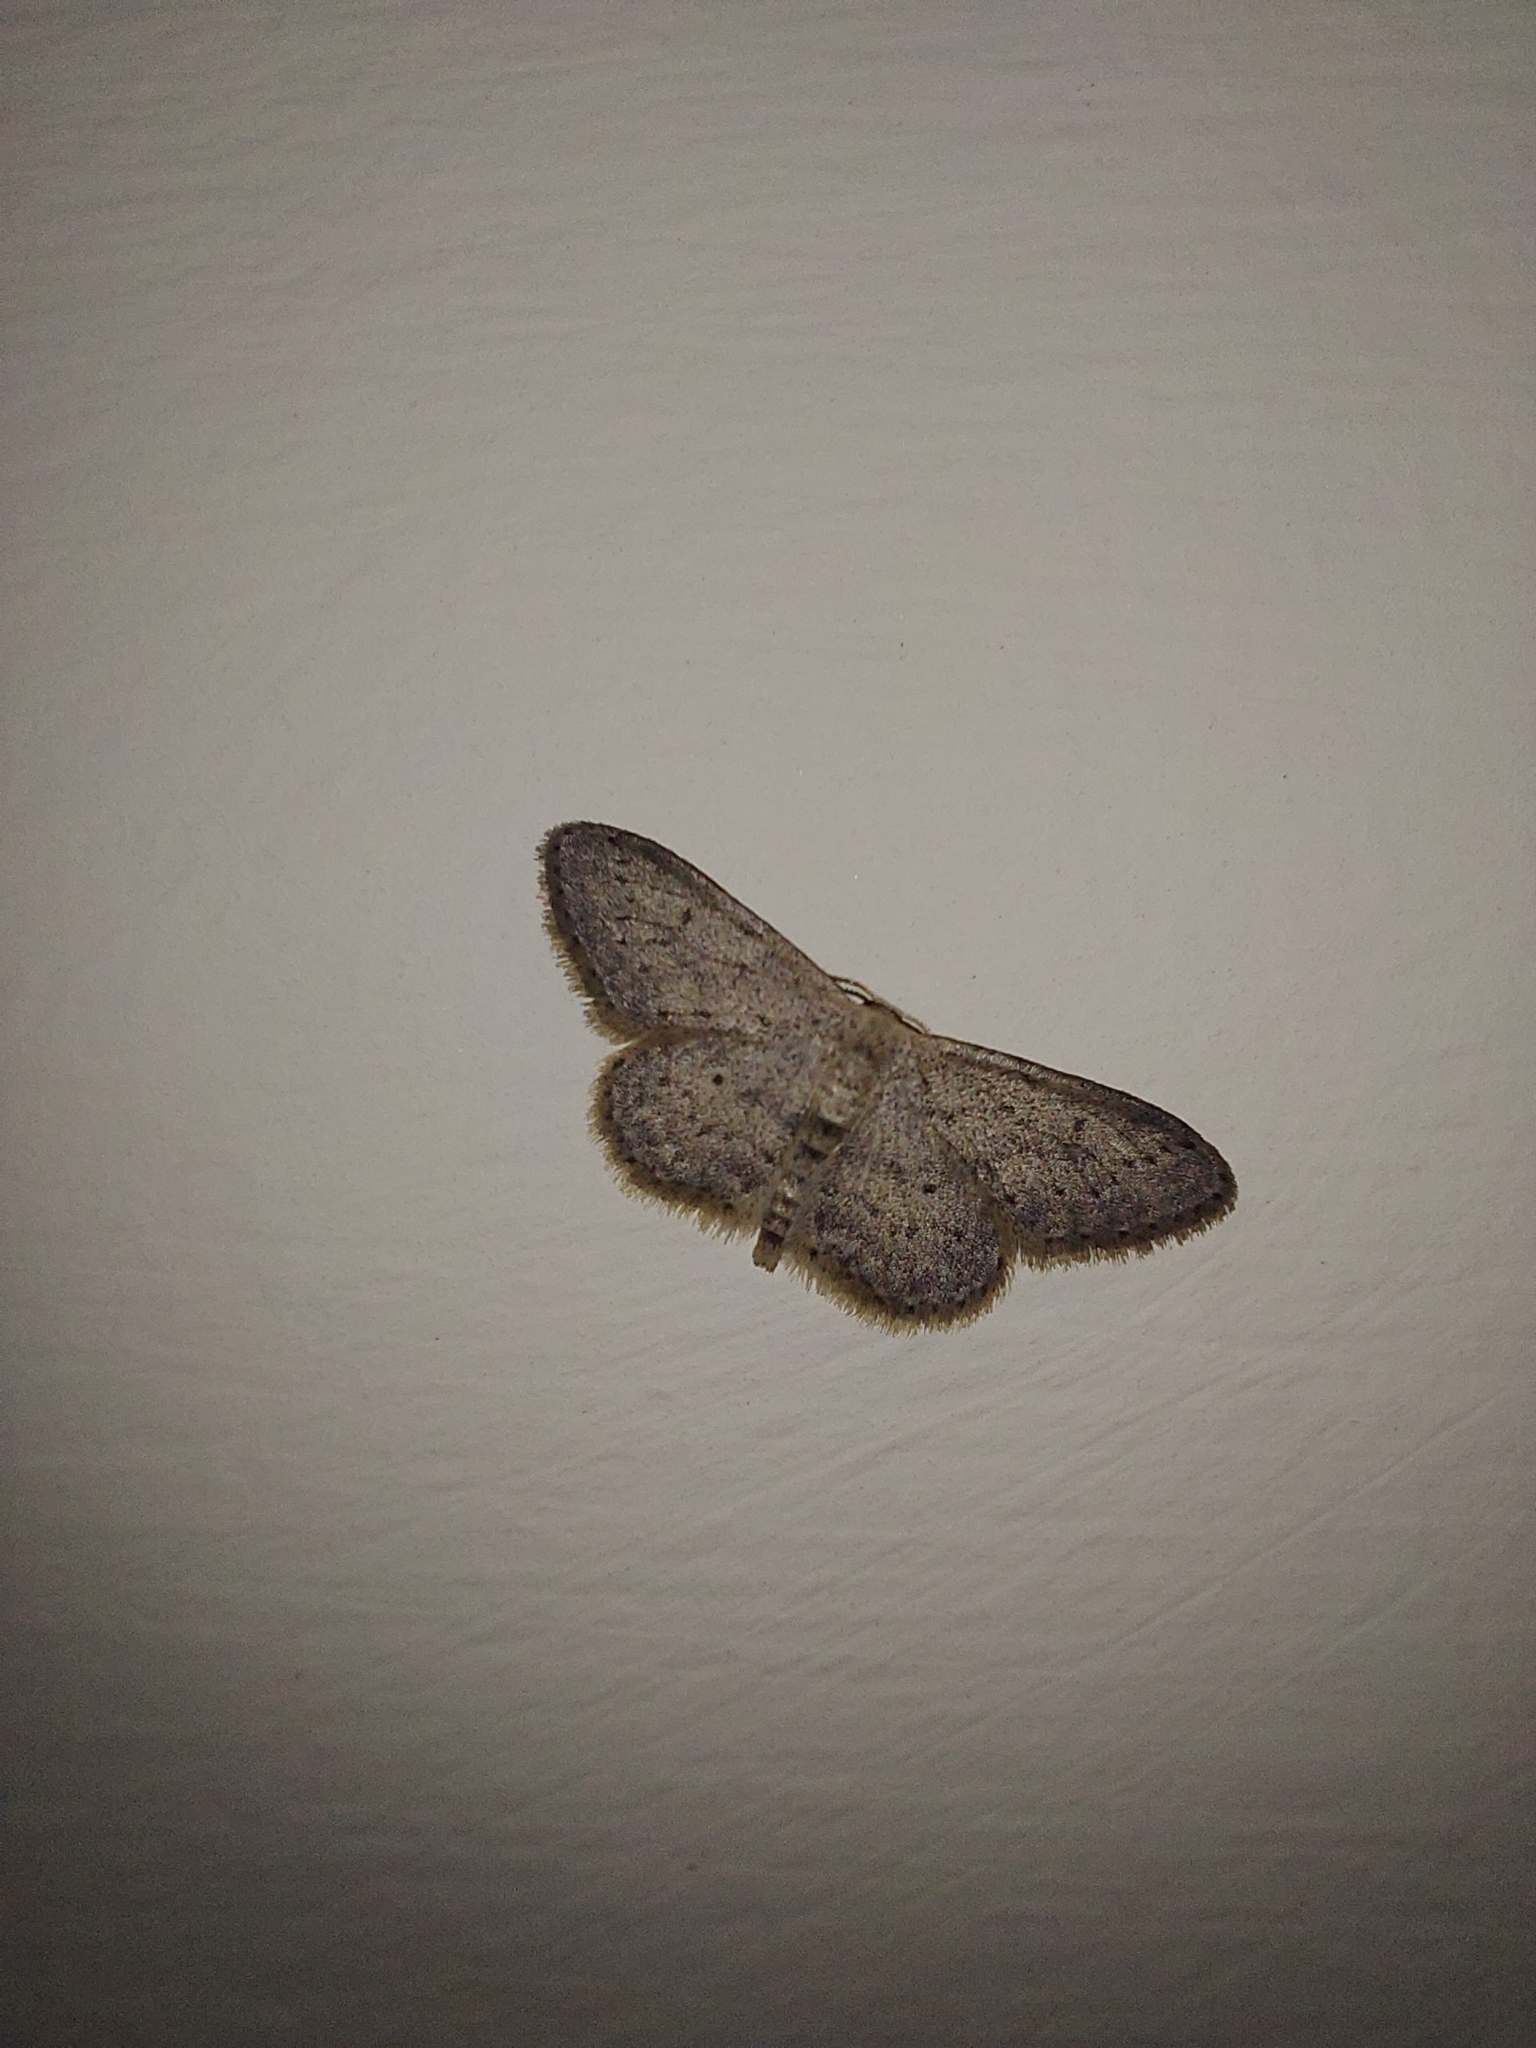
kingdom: Animalia
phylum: Arthropoda
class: Insecta
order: Lepidoptera
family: Geometridae
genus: Idaea
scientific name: Idaea seriata
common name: Small dusty wave
